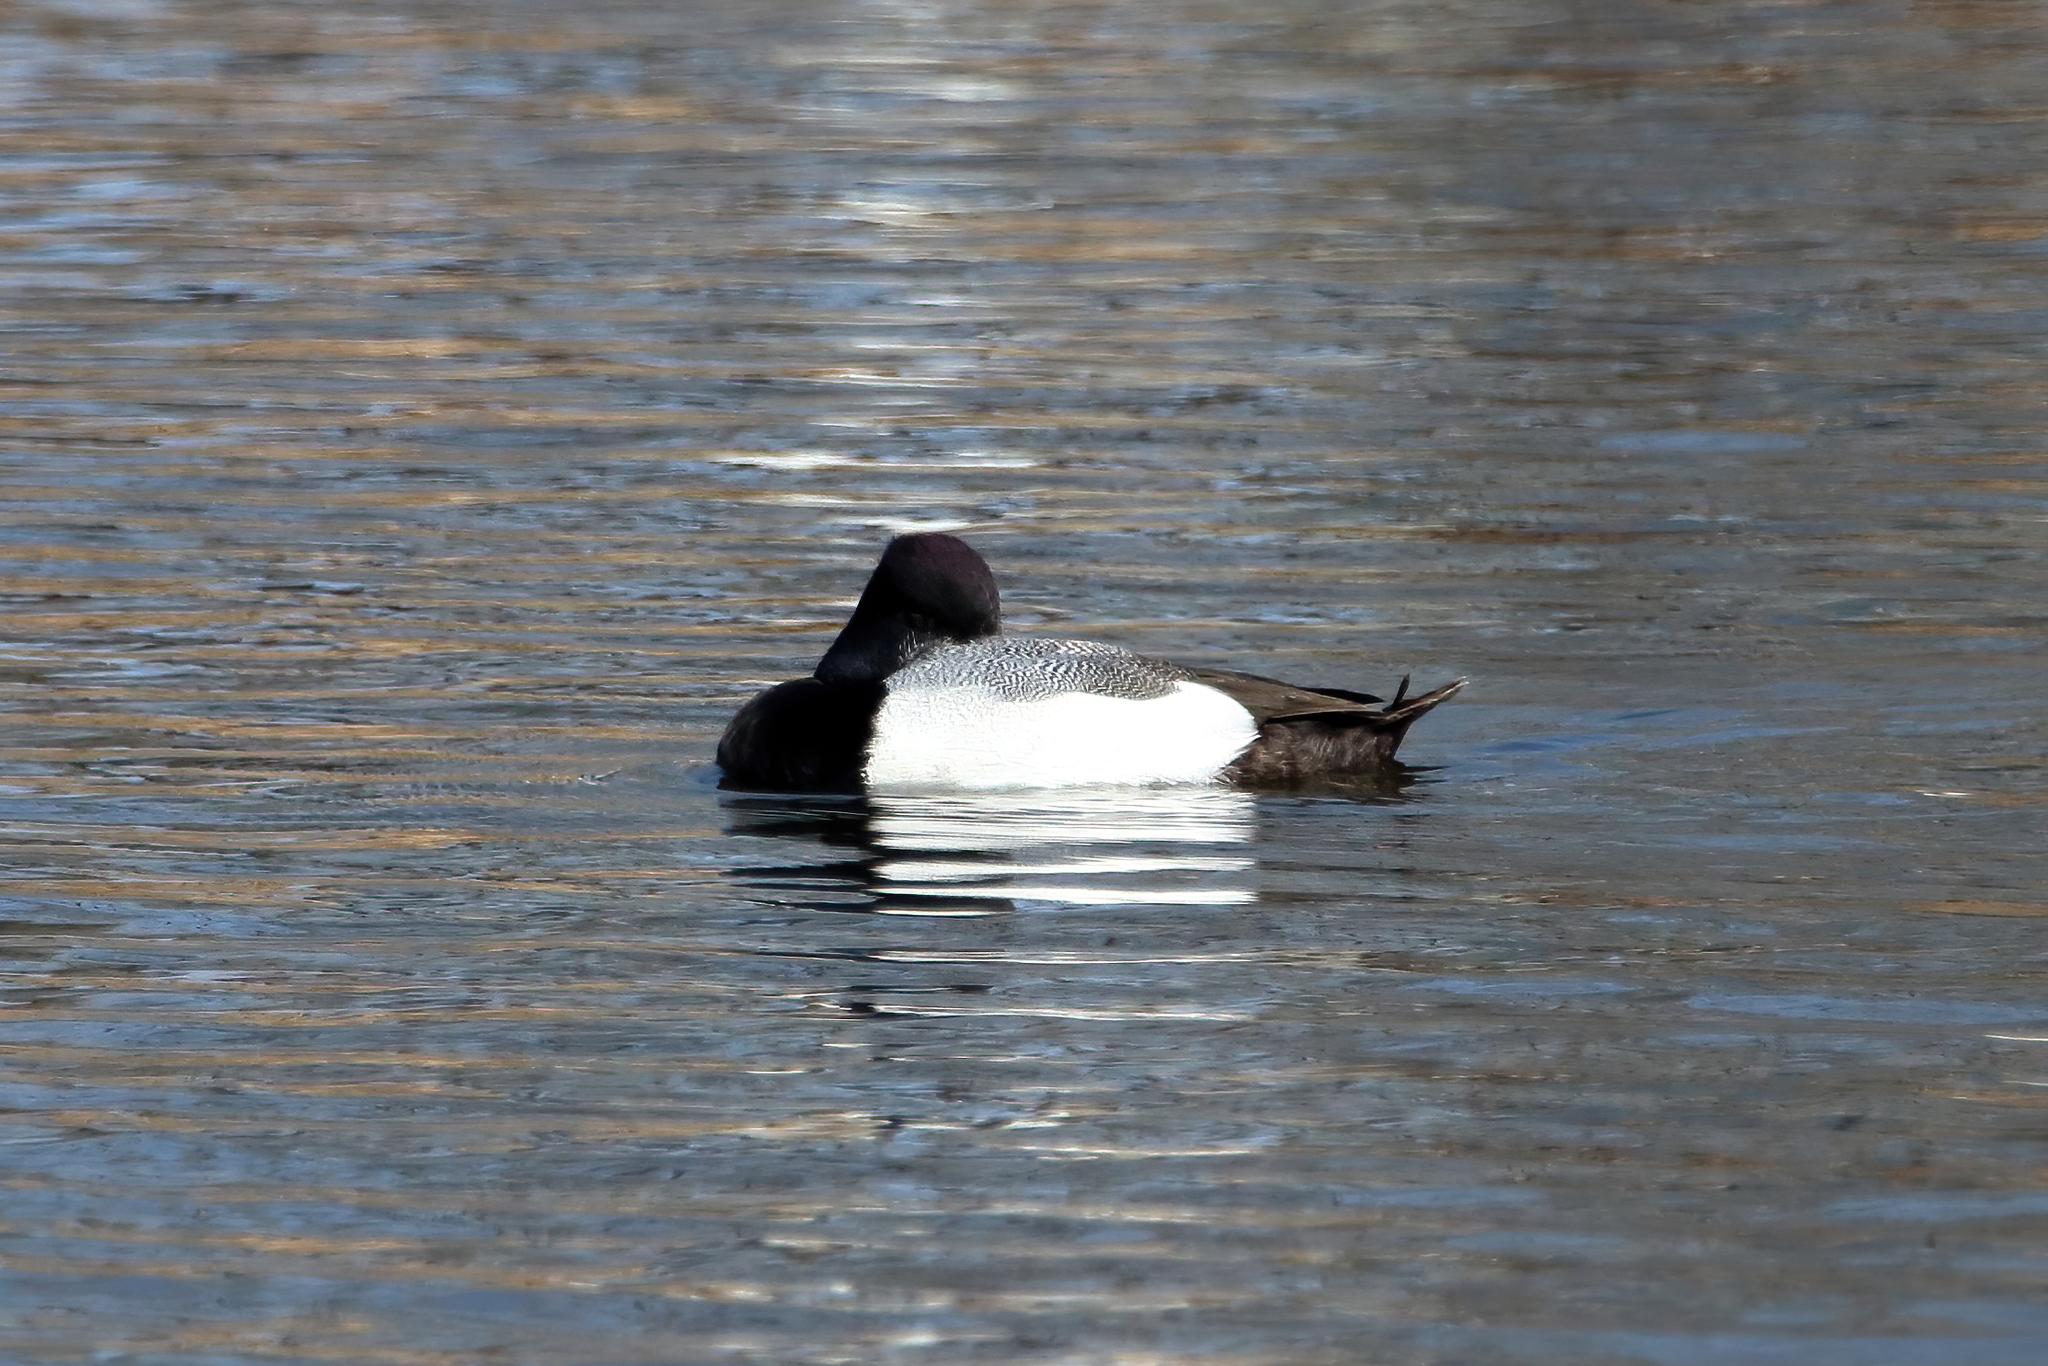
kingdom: Animalia
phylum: Chordata
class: Aves
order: Anseriformes
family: Anatidae
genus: Aythya
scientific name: Aythya affinis
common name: Lesser scaup
